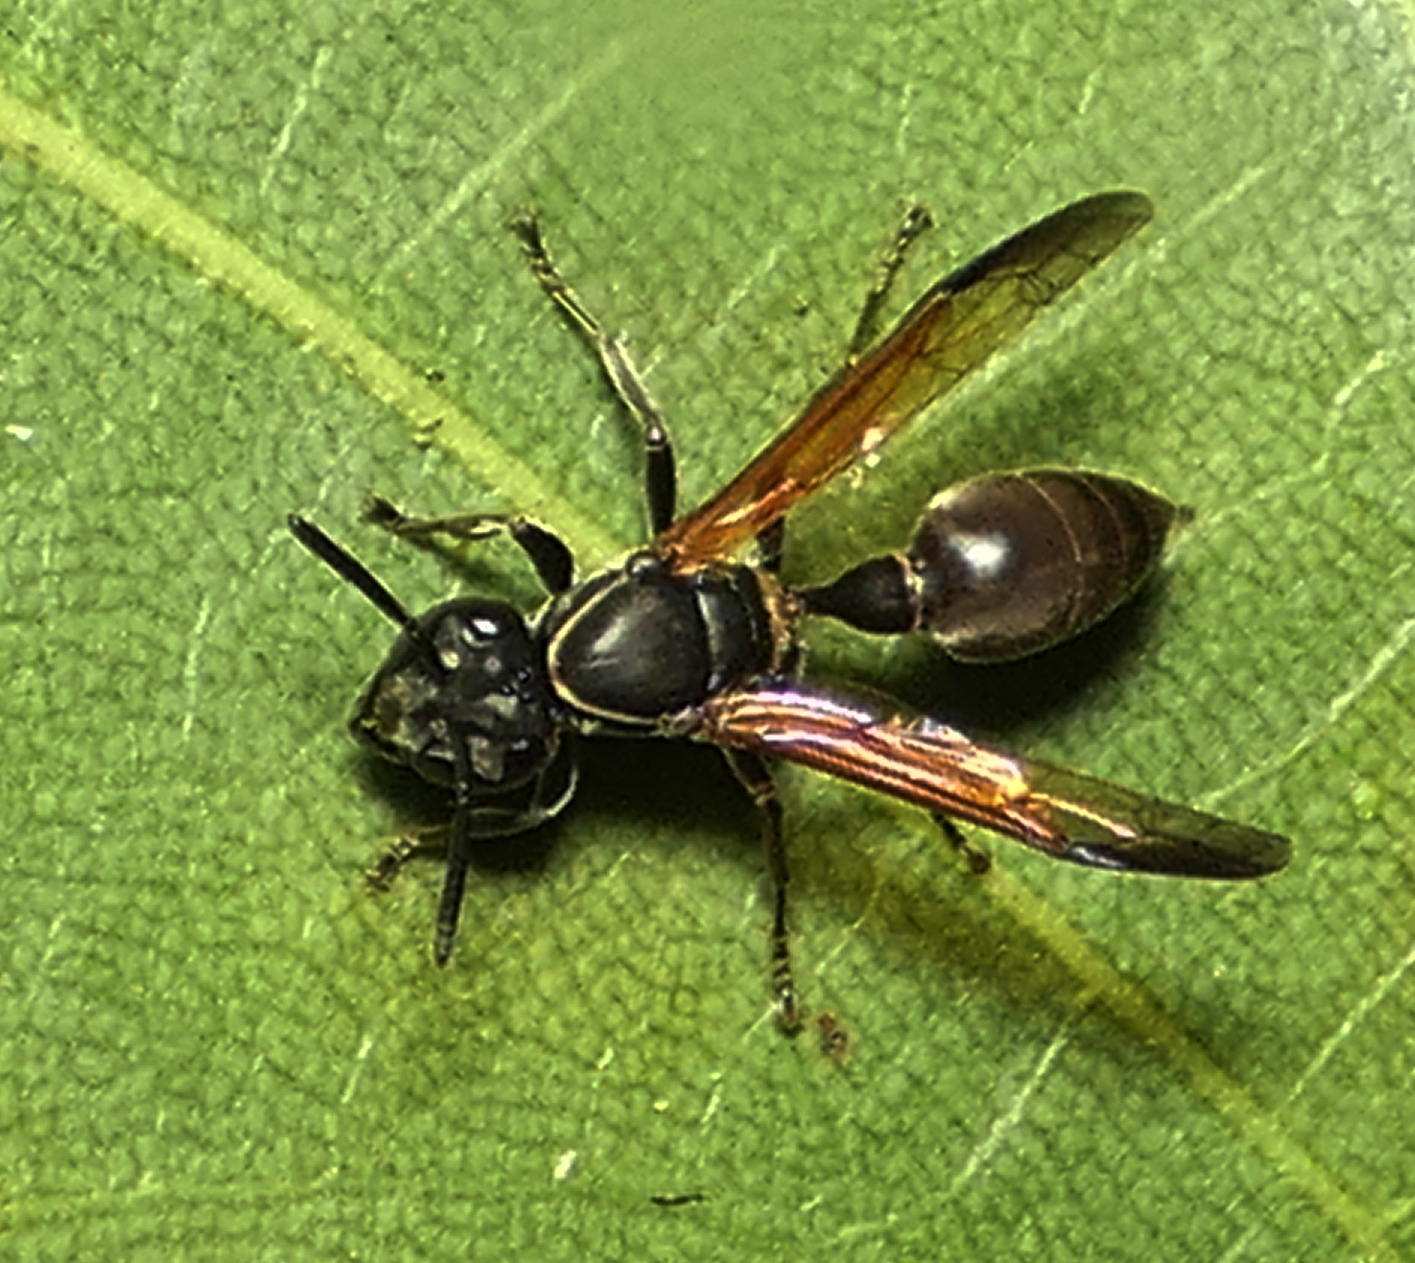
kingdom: Animalia
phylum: Arthropoda
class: Insecta
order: Hymenoptera
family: Eumenidae
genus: Polybia
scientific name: Polybia rejecta
